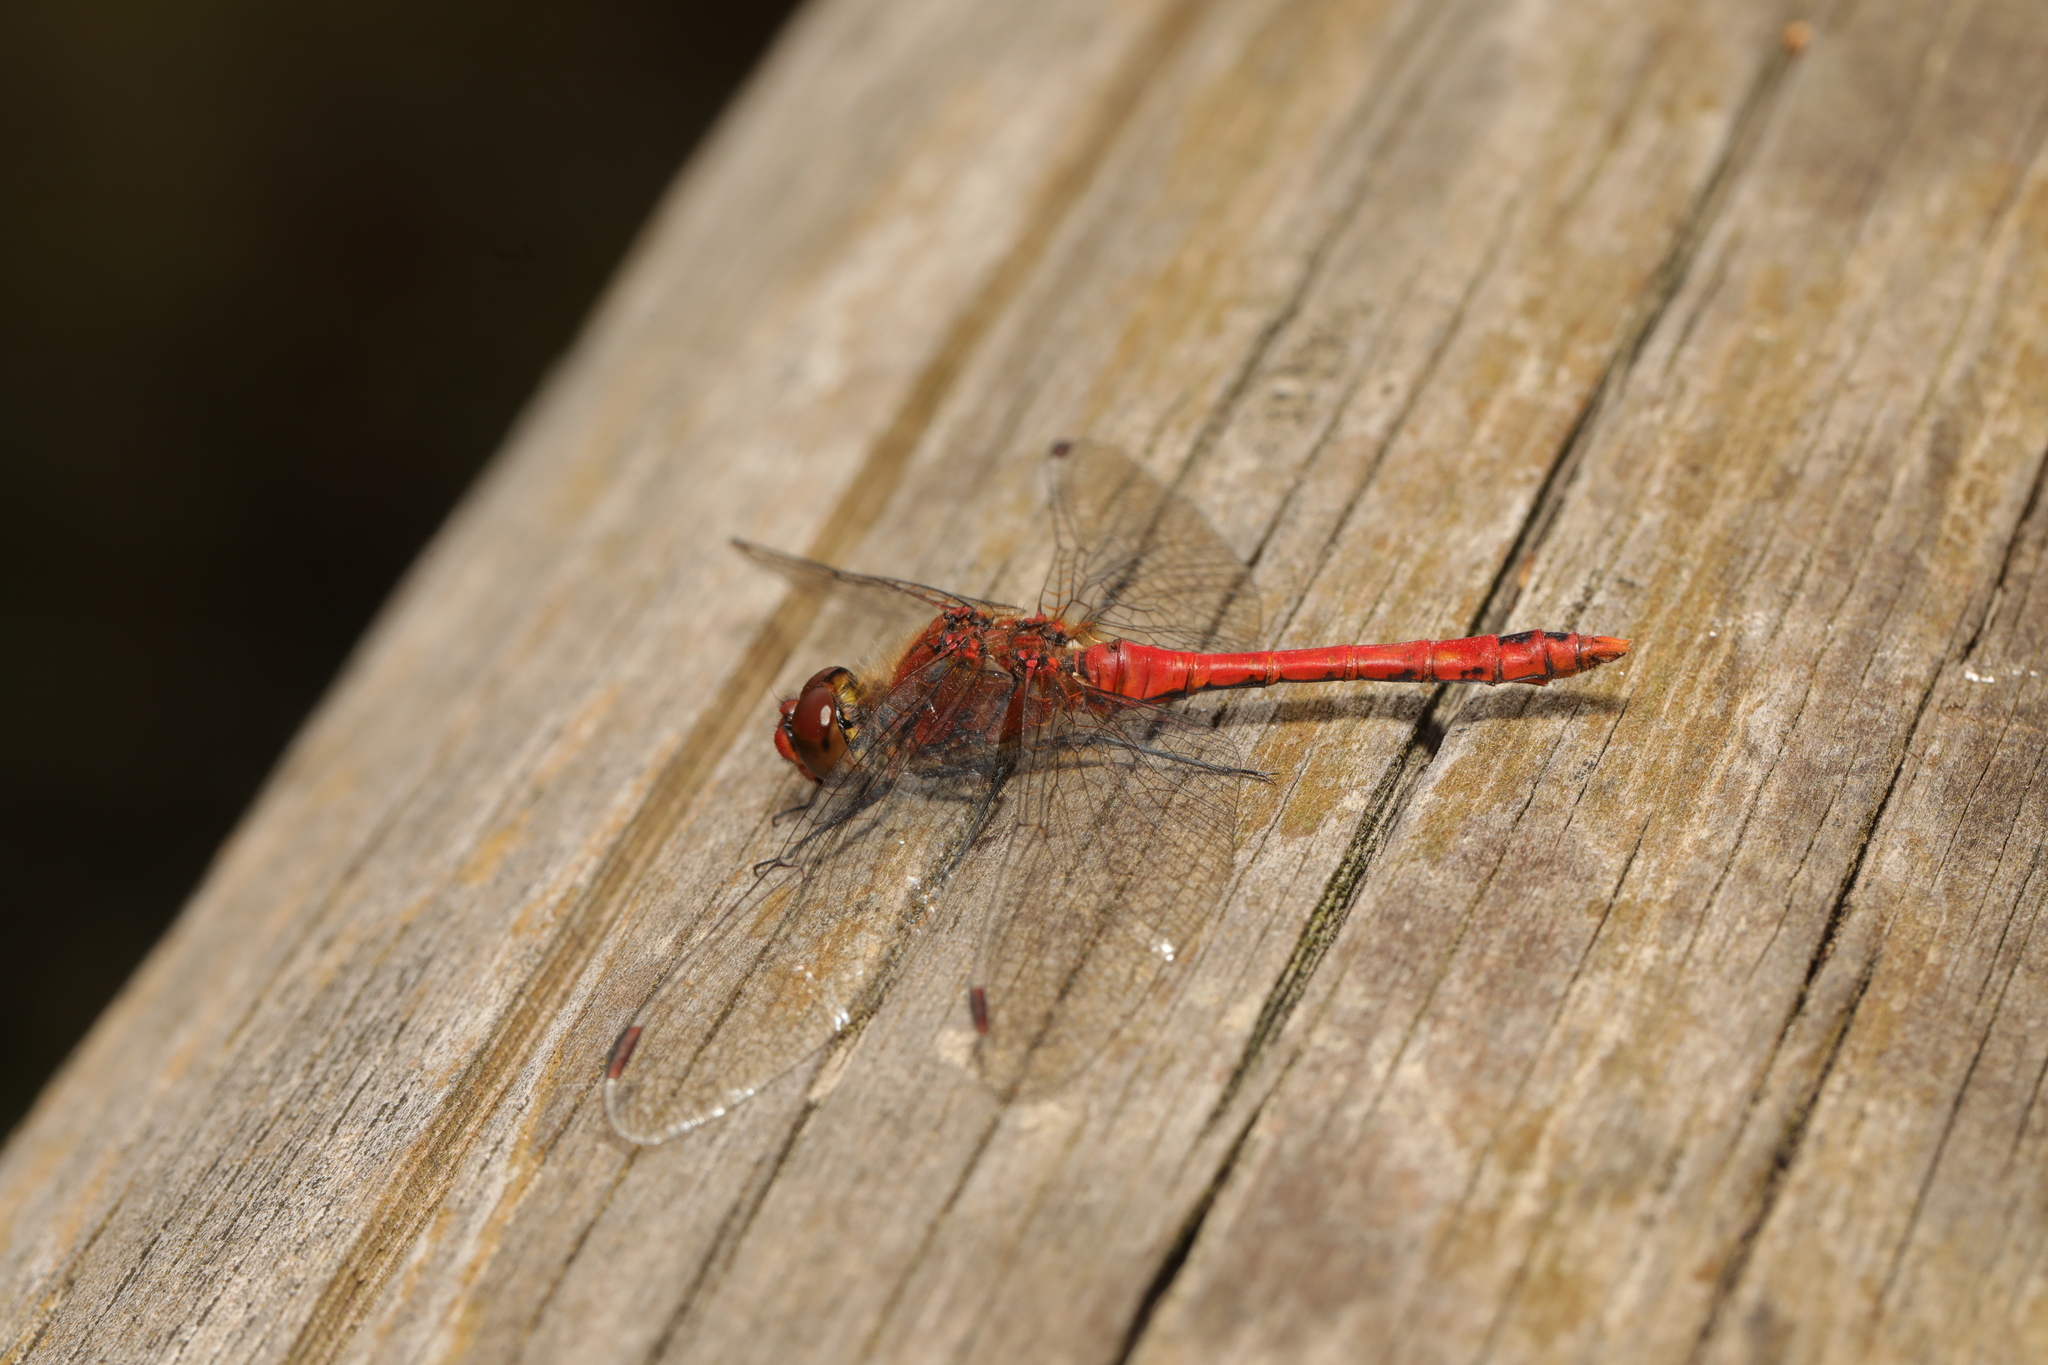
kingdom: Animalia
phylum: Arthropoda
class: Insecta
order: Odonata
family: Libellulidae
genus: Sympetrum
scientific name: Sympetrum sanguineum
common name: Ruddy darter
